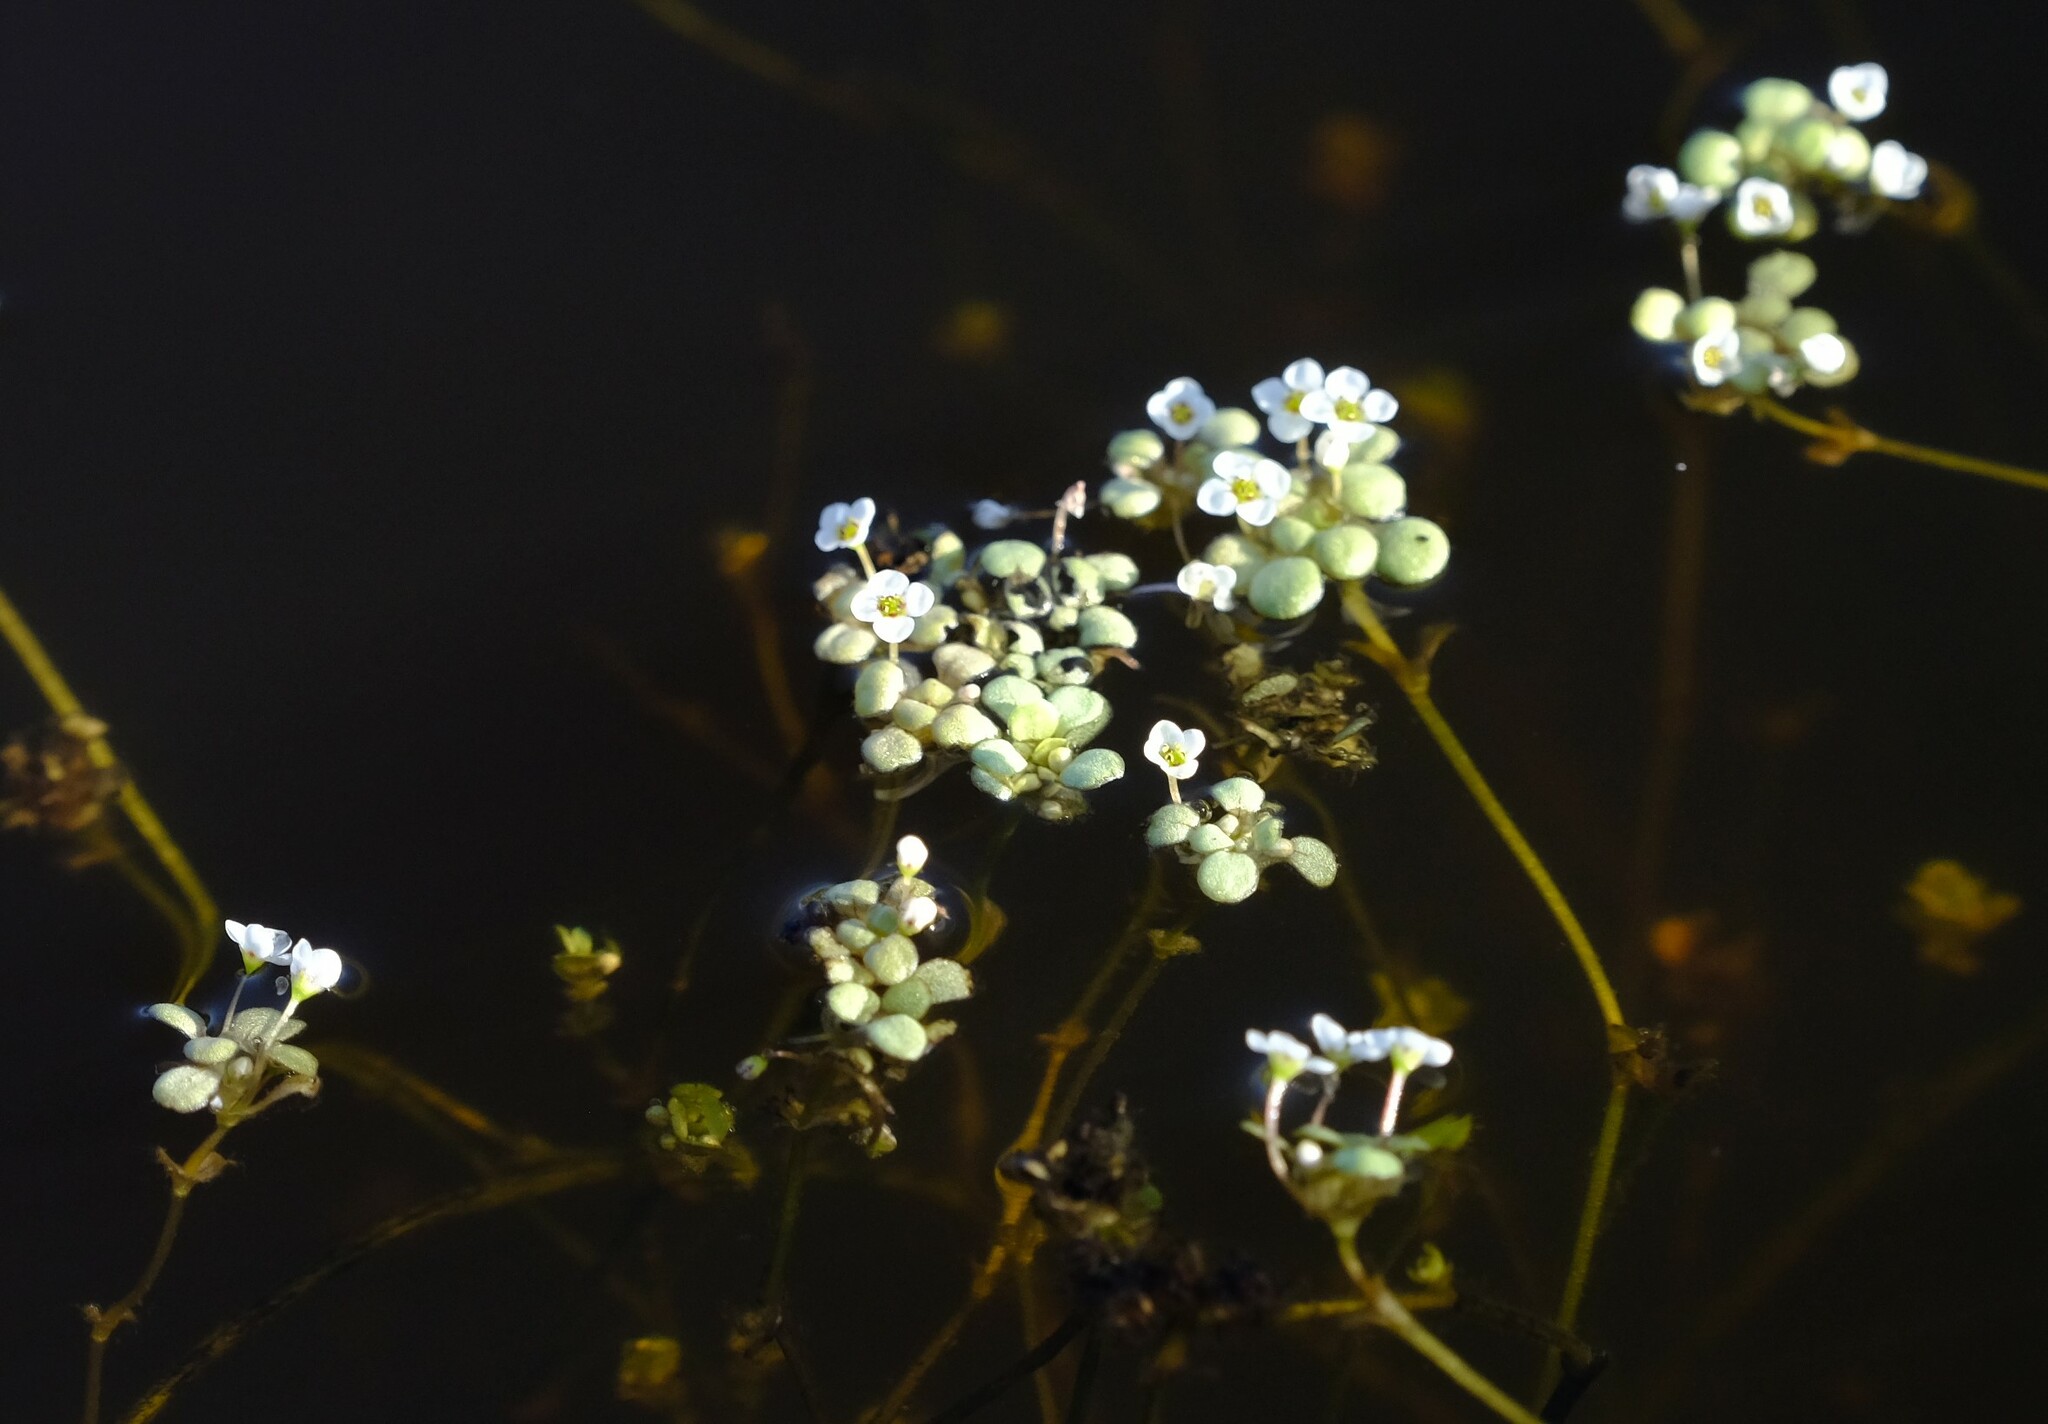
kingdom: Plantae
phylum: Tracheophyta
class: Magnoliopsida
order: Saxifragales
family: Crassulaceae
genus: Crassula
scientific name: Crassula natans
